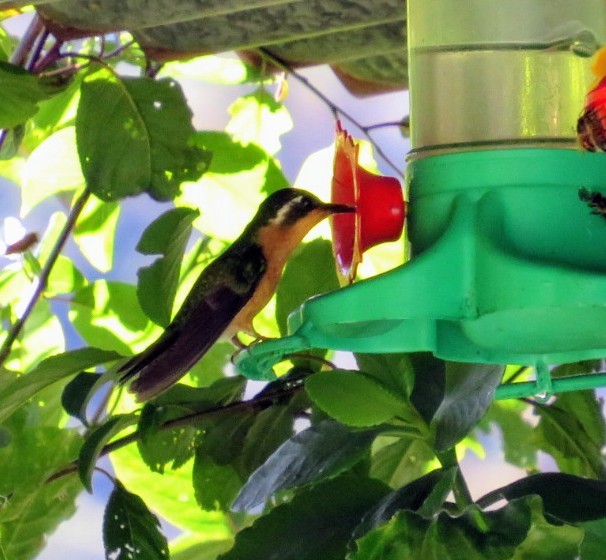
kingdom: Animalia
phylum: Chordata
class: Aves
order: Apodiformes
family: Trochilidae
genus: Lampornis
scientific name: Lampornis
